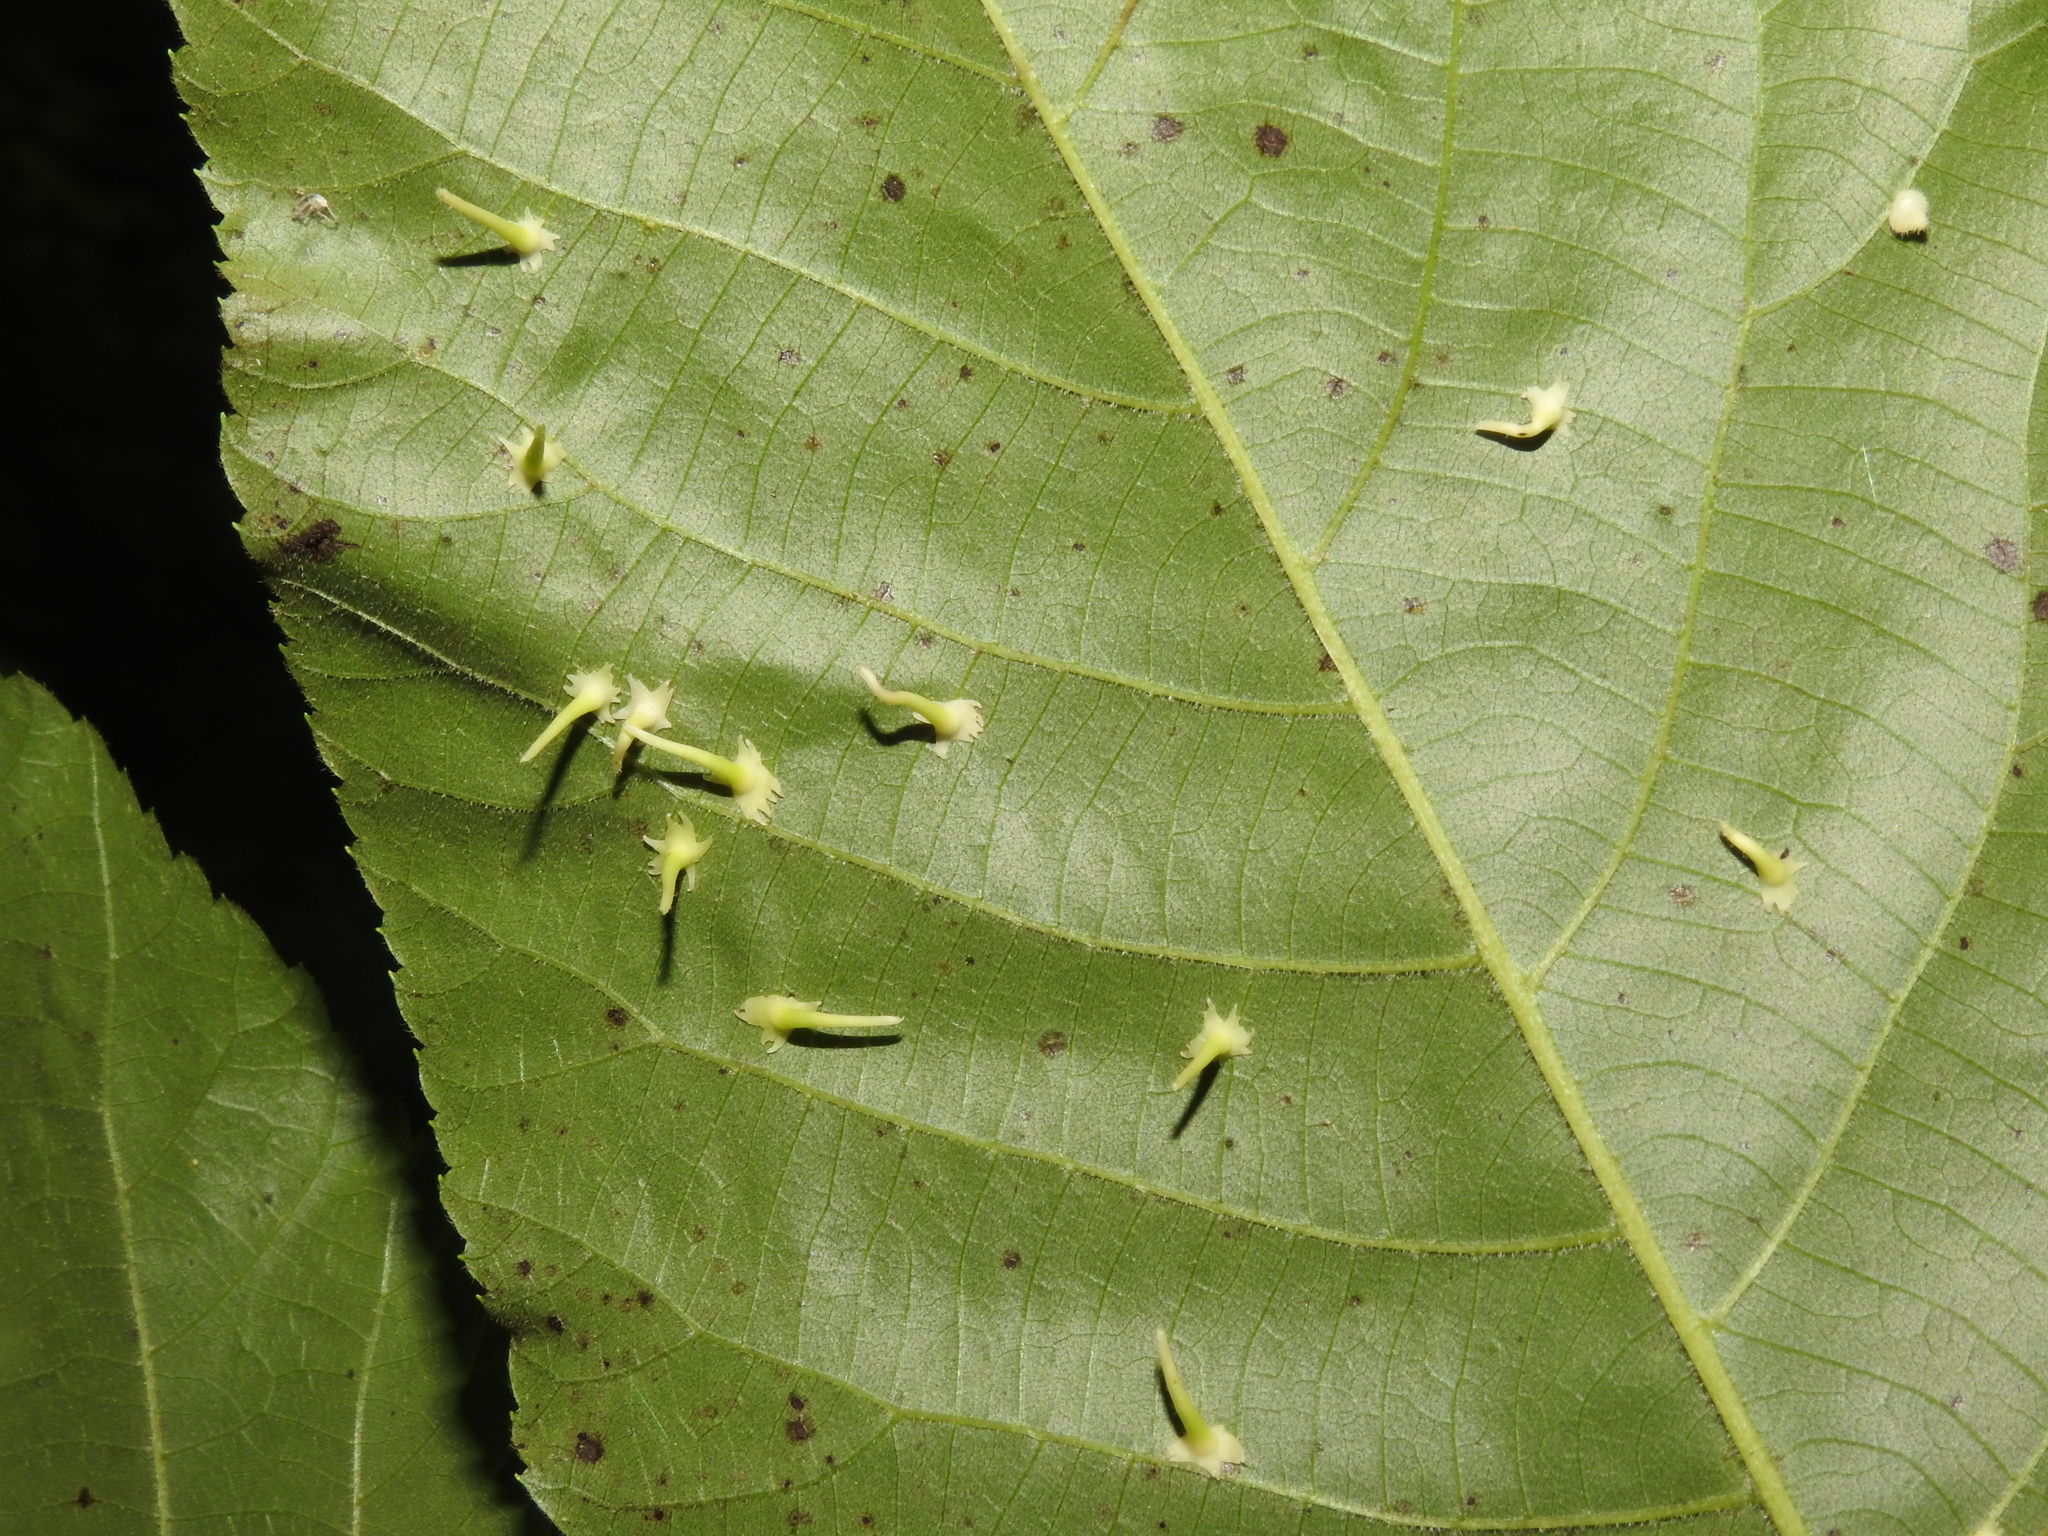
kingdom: Animalia
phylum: Arthropoda
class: Insecta
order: Diptera
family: Cecidomyiidae
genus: Caryomyia
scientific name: Caryomyia stellata
